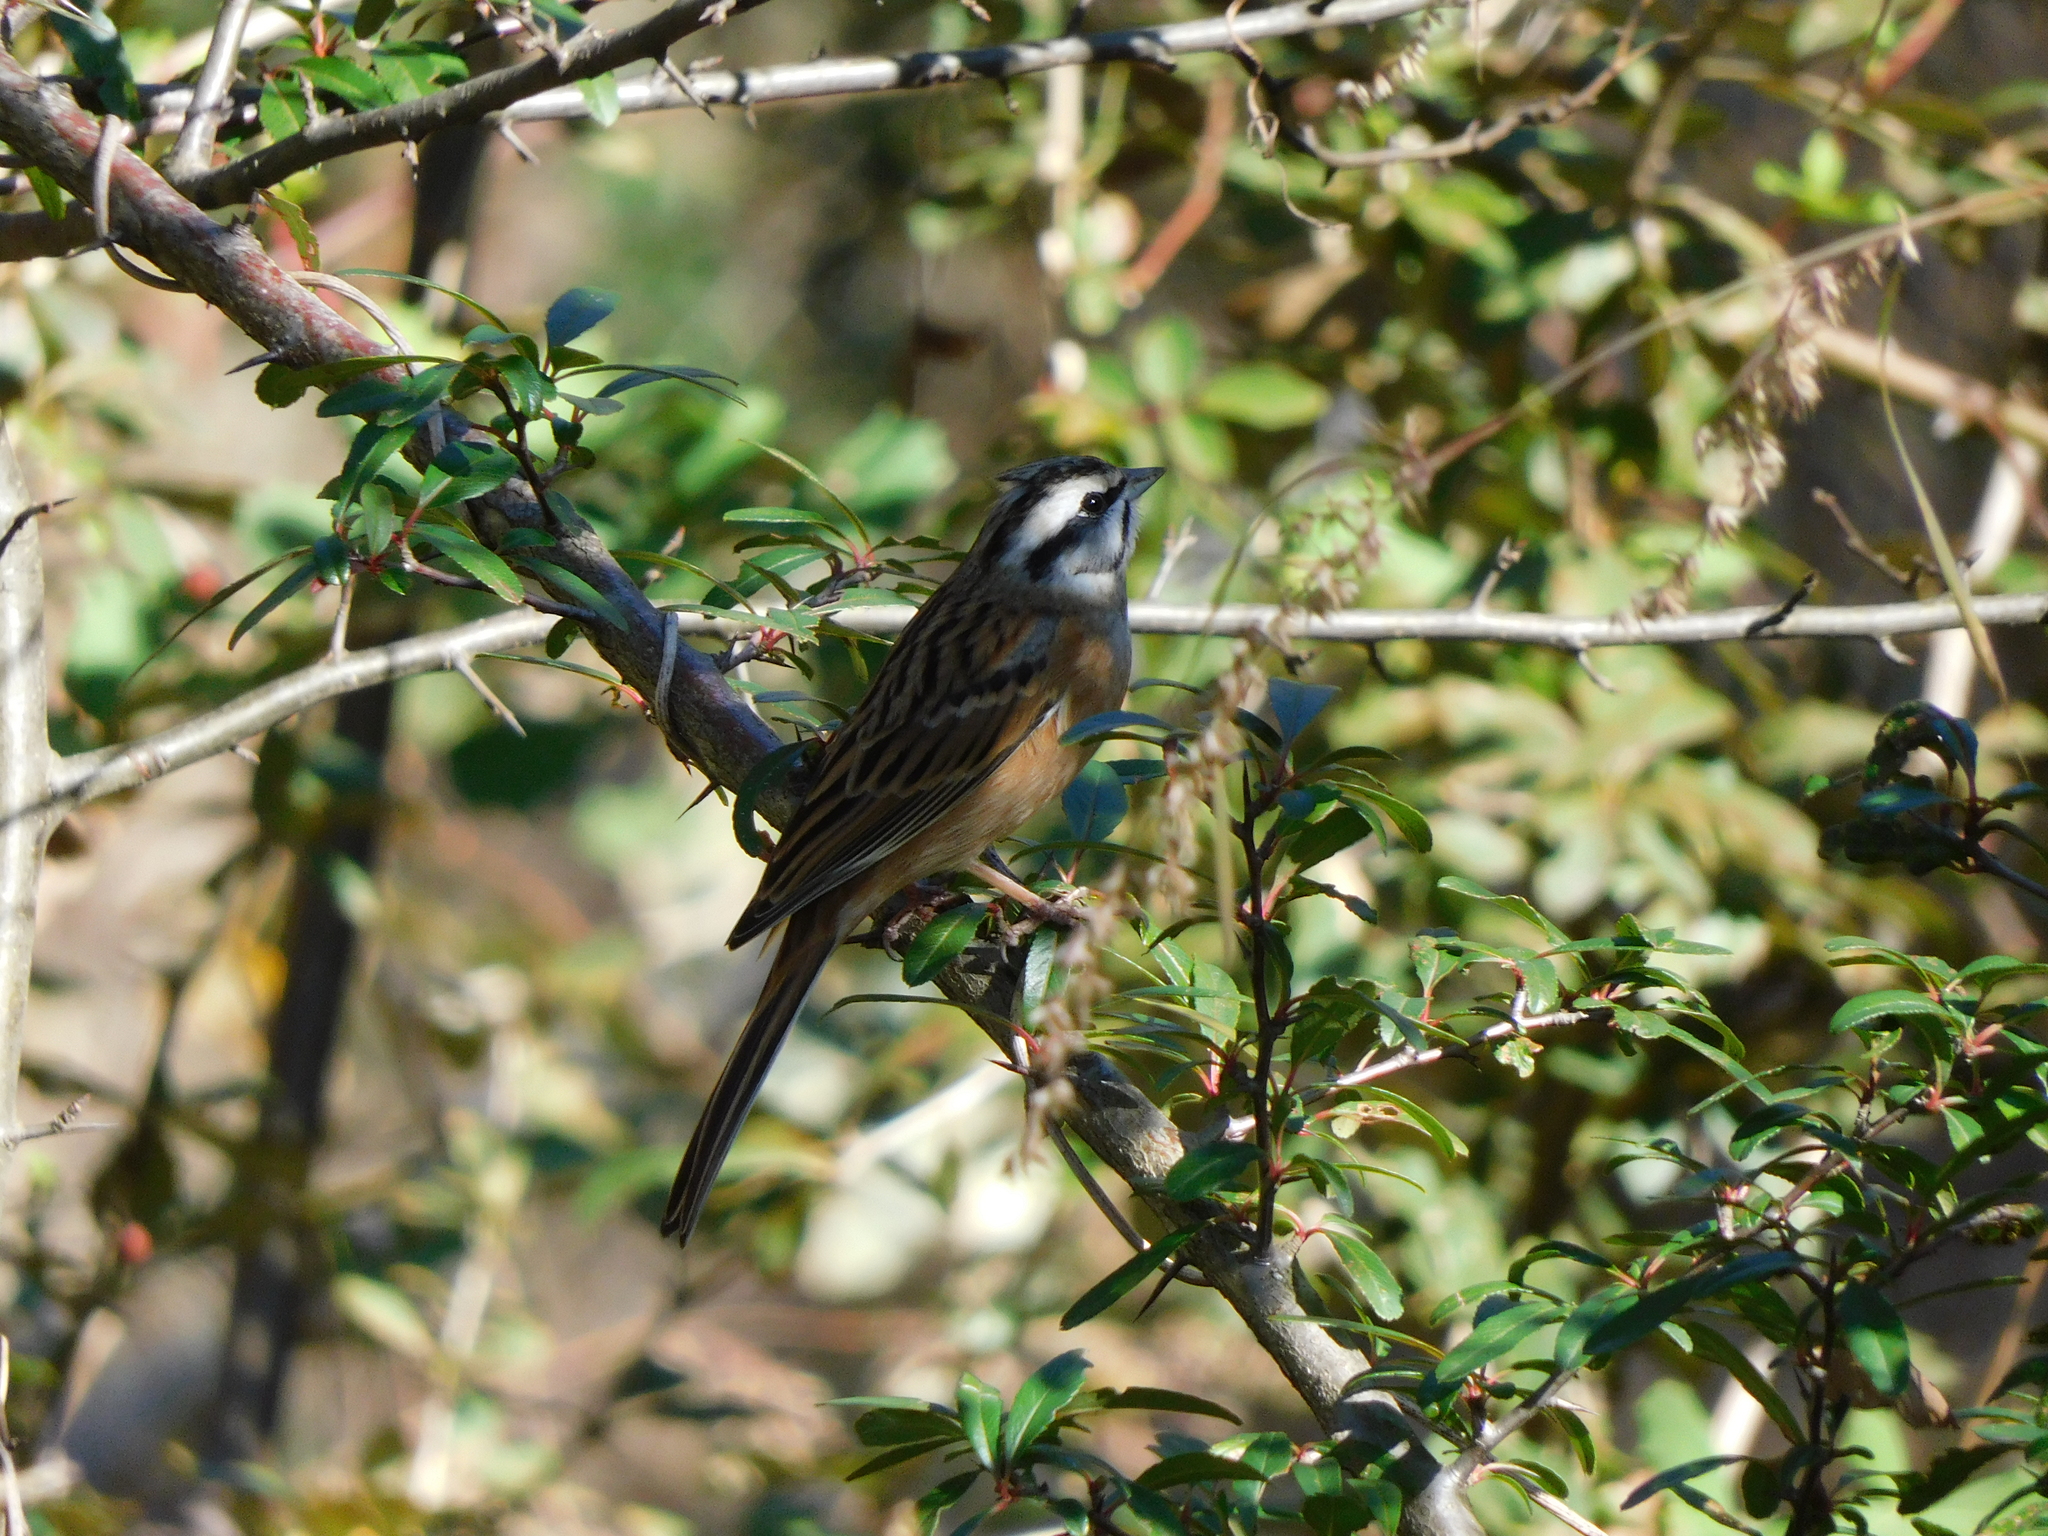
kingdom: Animalia
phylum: Chordata
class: Aves
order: Passeriformes
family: Emberizidae
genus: Emberiza
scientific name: Emberiza cia
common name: Rock bunting
